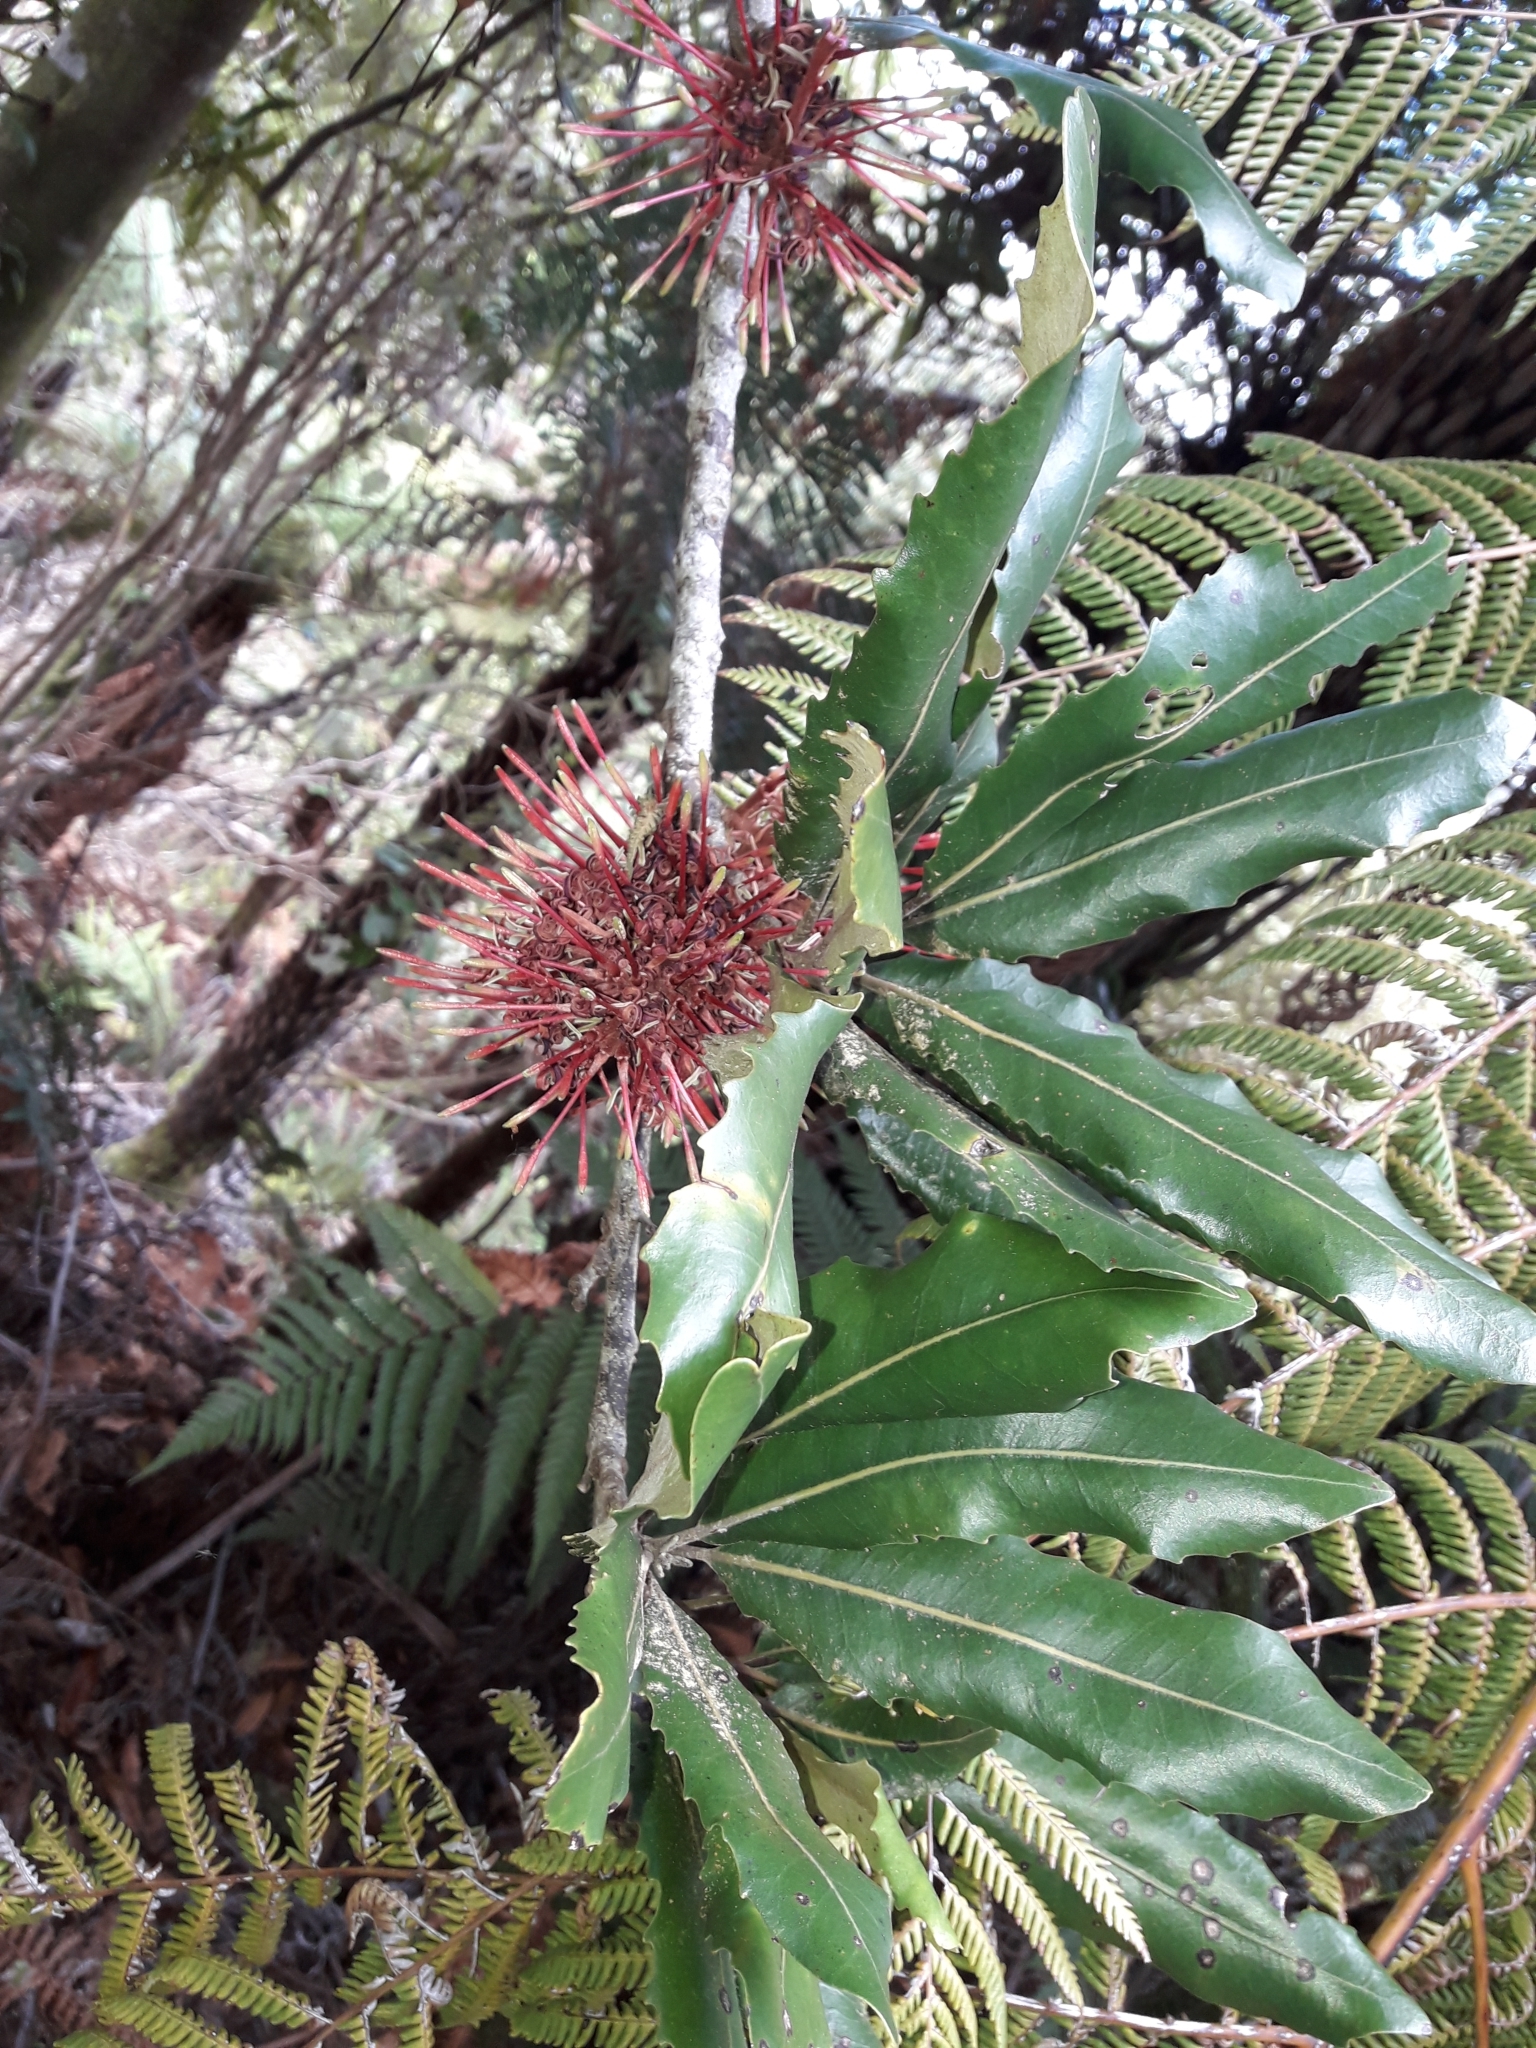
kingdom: Plantae
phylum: Tracheophyta
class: Magnoliopsida
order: Proteales
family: Proteaceae
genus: Knightia
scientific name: Knightia excelsa
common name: New zealand-honeysuckle
